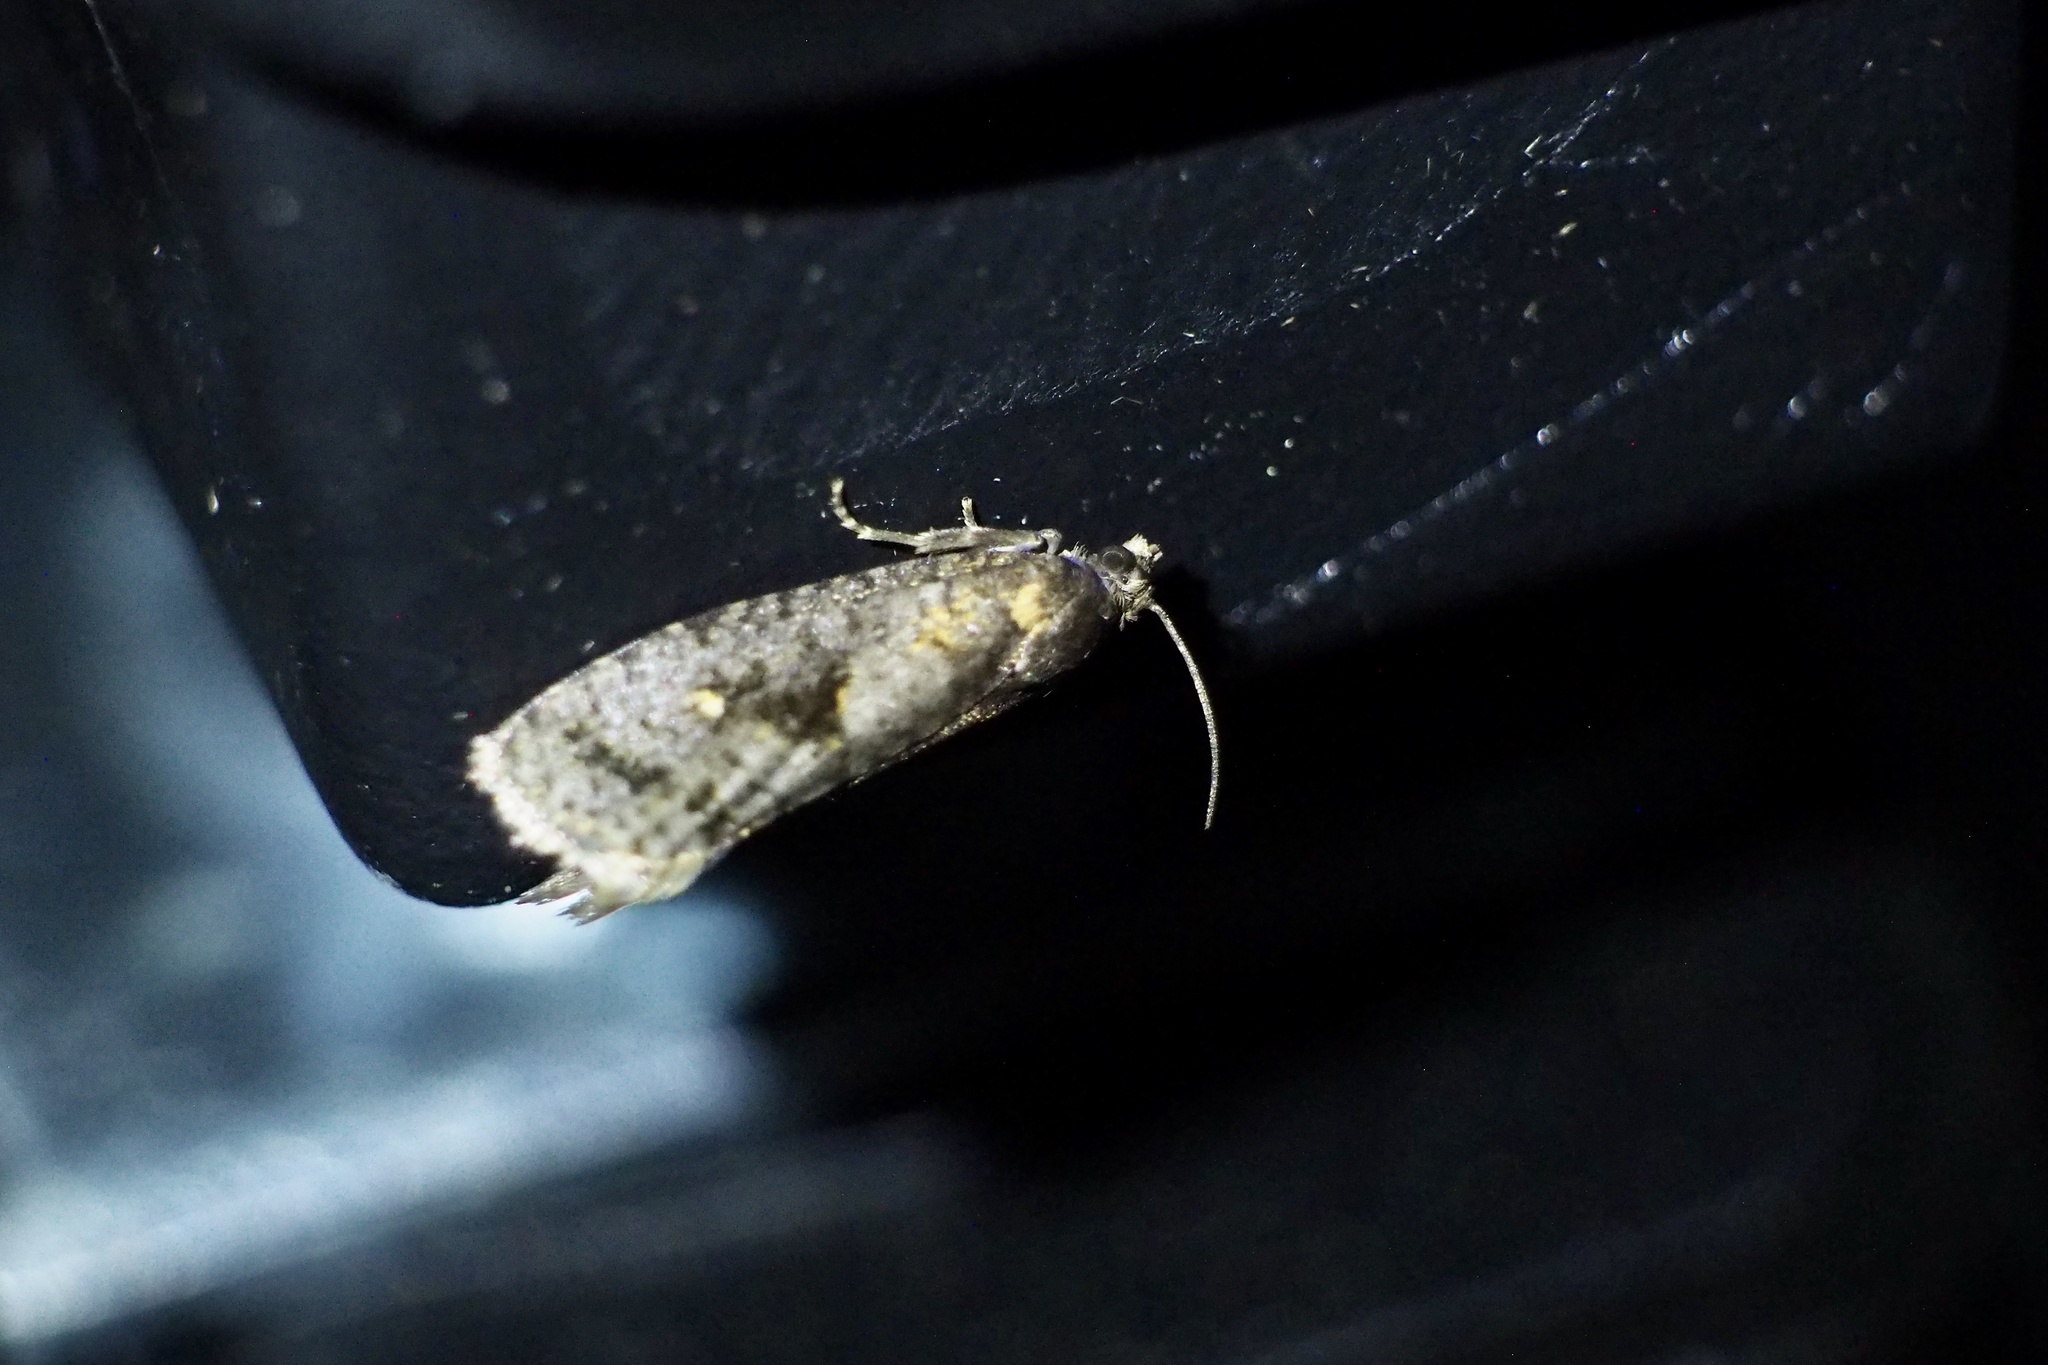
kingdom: Animalia
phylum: Arthropoda
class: Insecta
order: Lepidoptera
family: Tortricidae
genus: Cryptaspasma
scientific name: Cryptaspasma angulicostana
